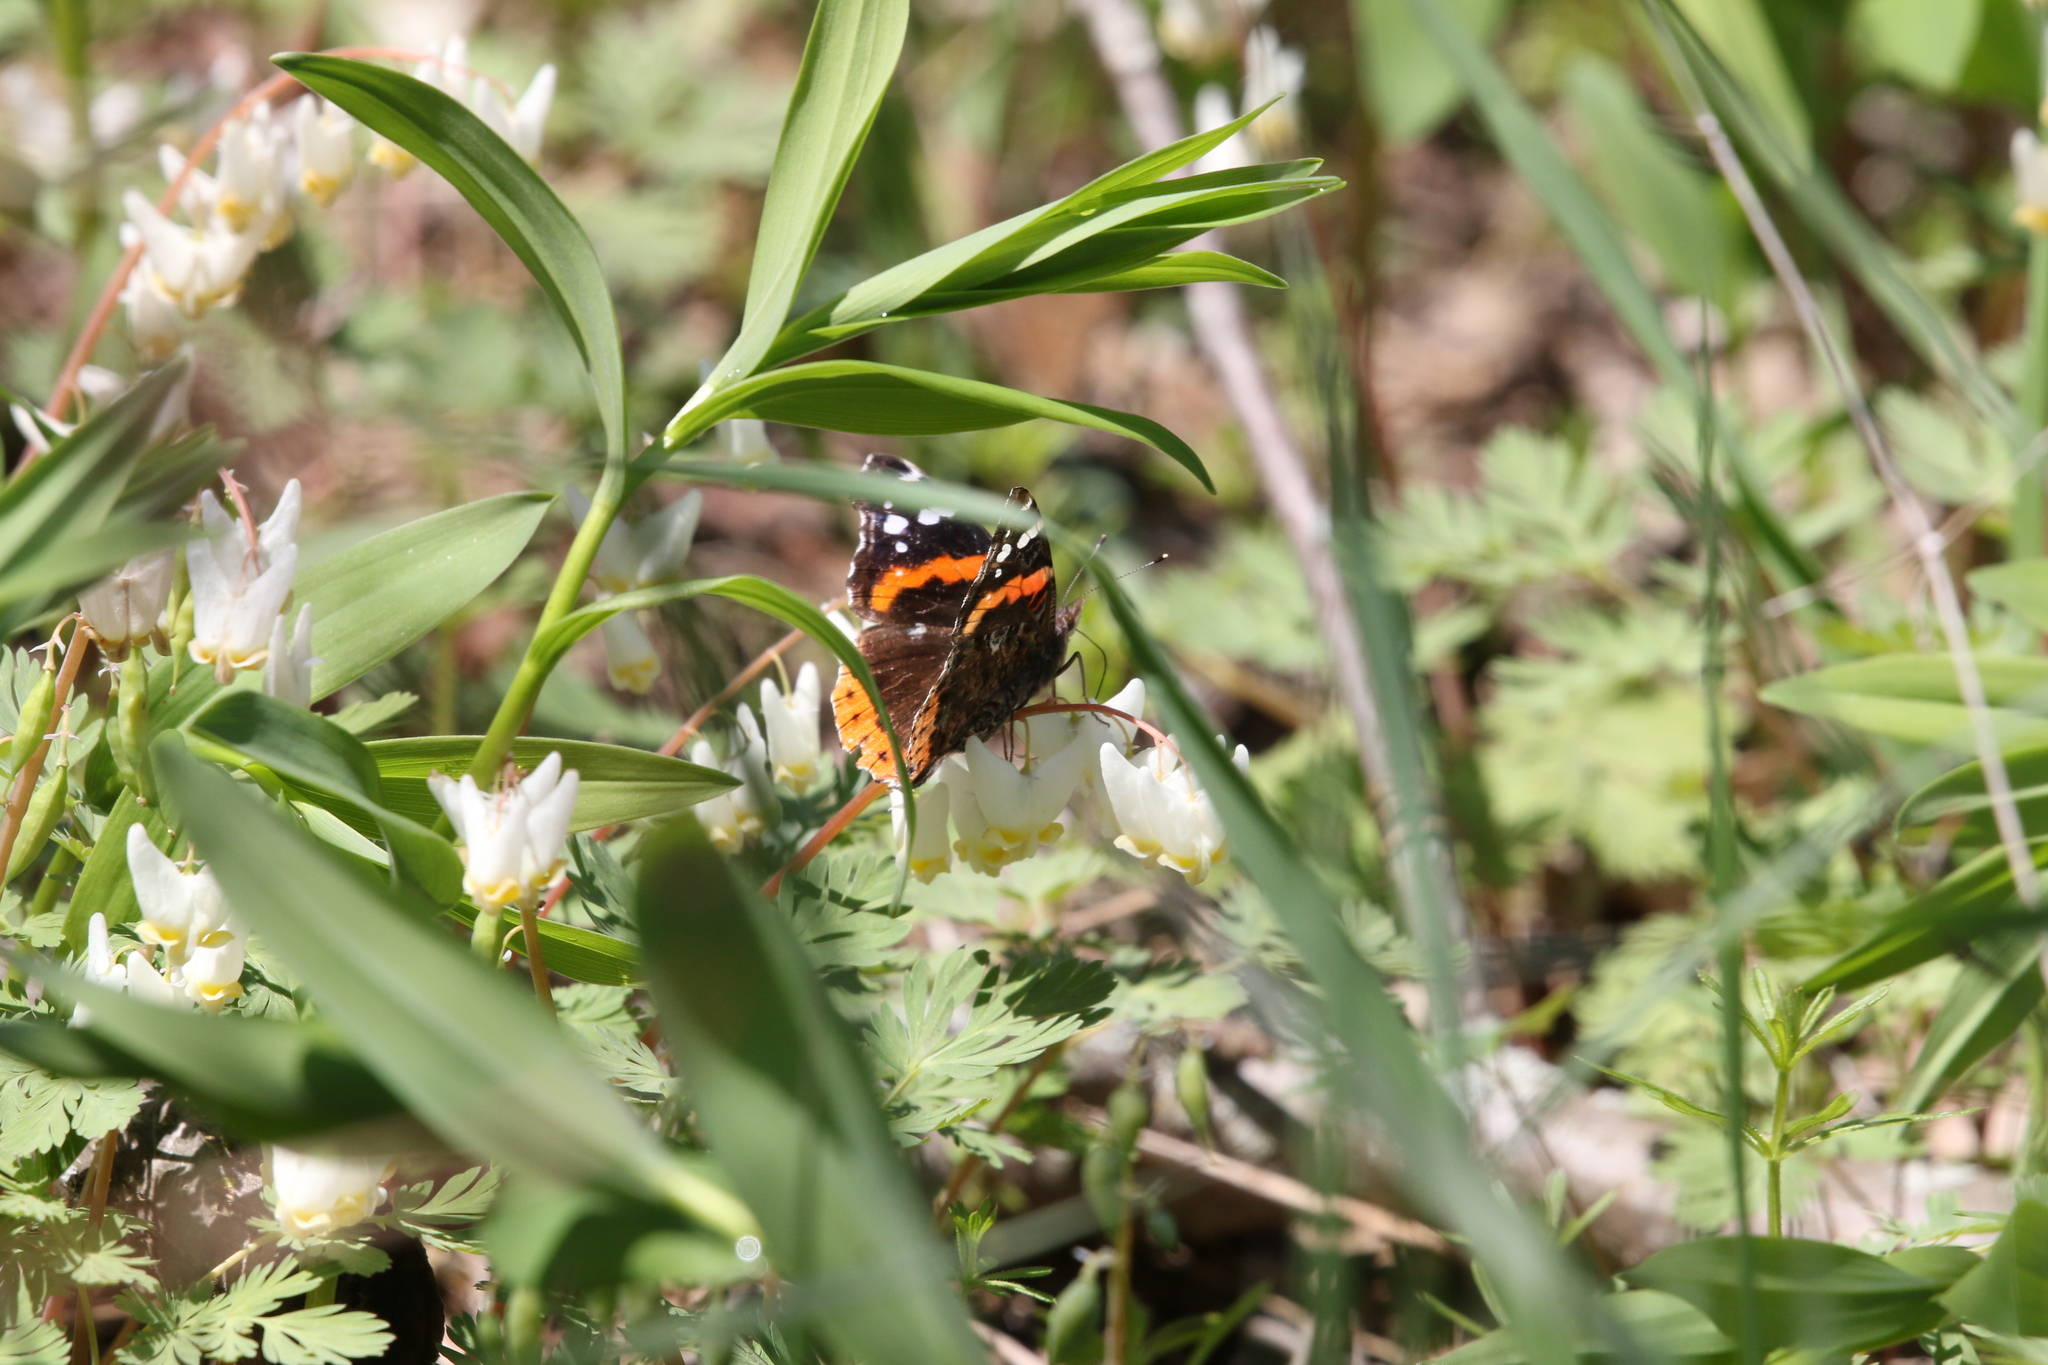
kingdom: Animalia
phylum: Arthropoda
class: Insecta
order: Lepidoptera
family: Nymphalidae
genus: Vanessa
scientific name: Vanessa atalanta
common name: Red admiral
